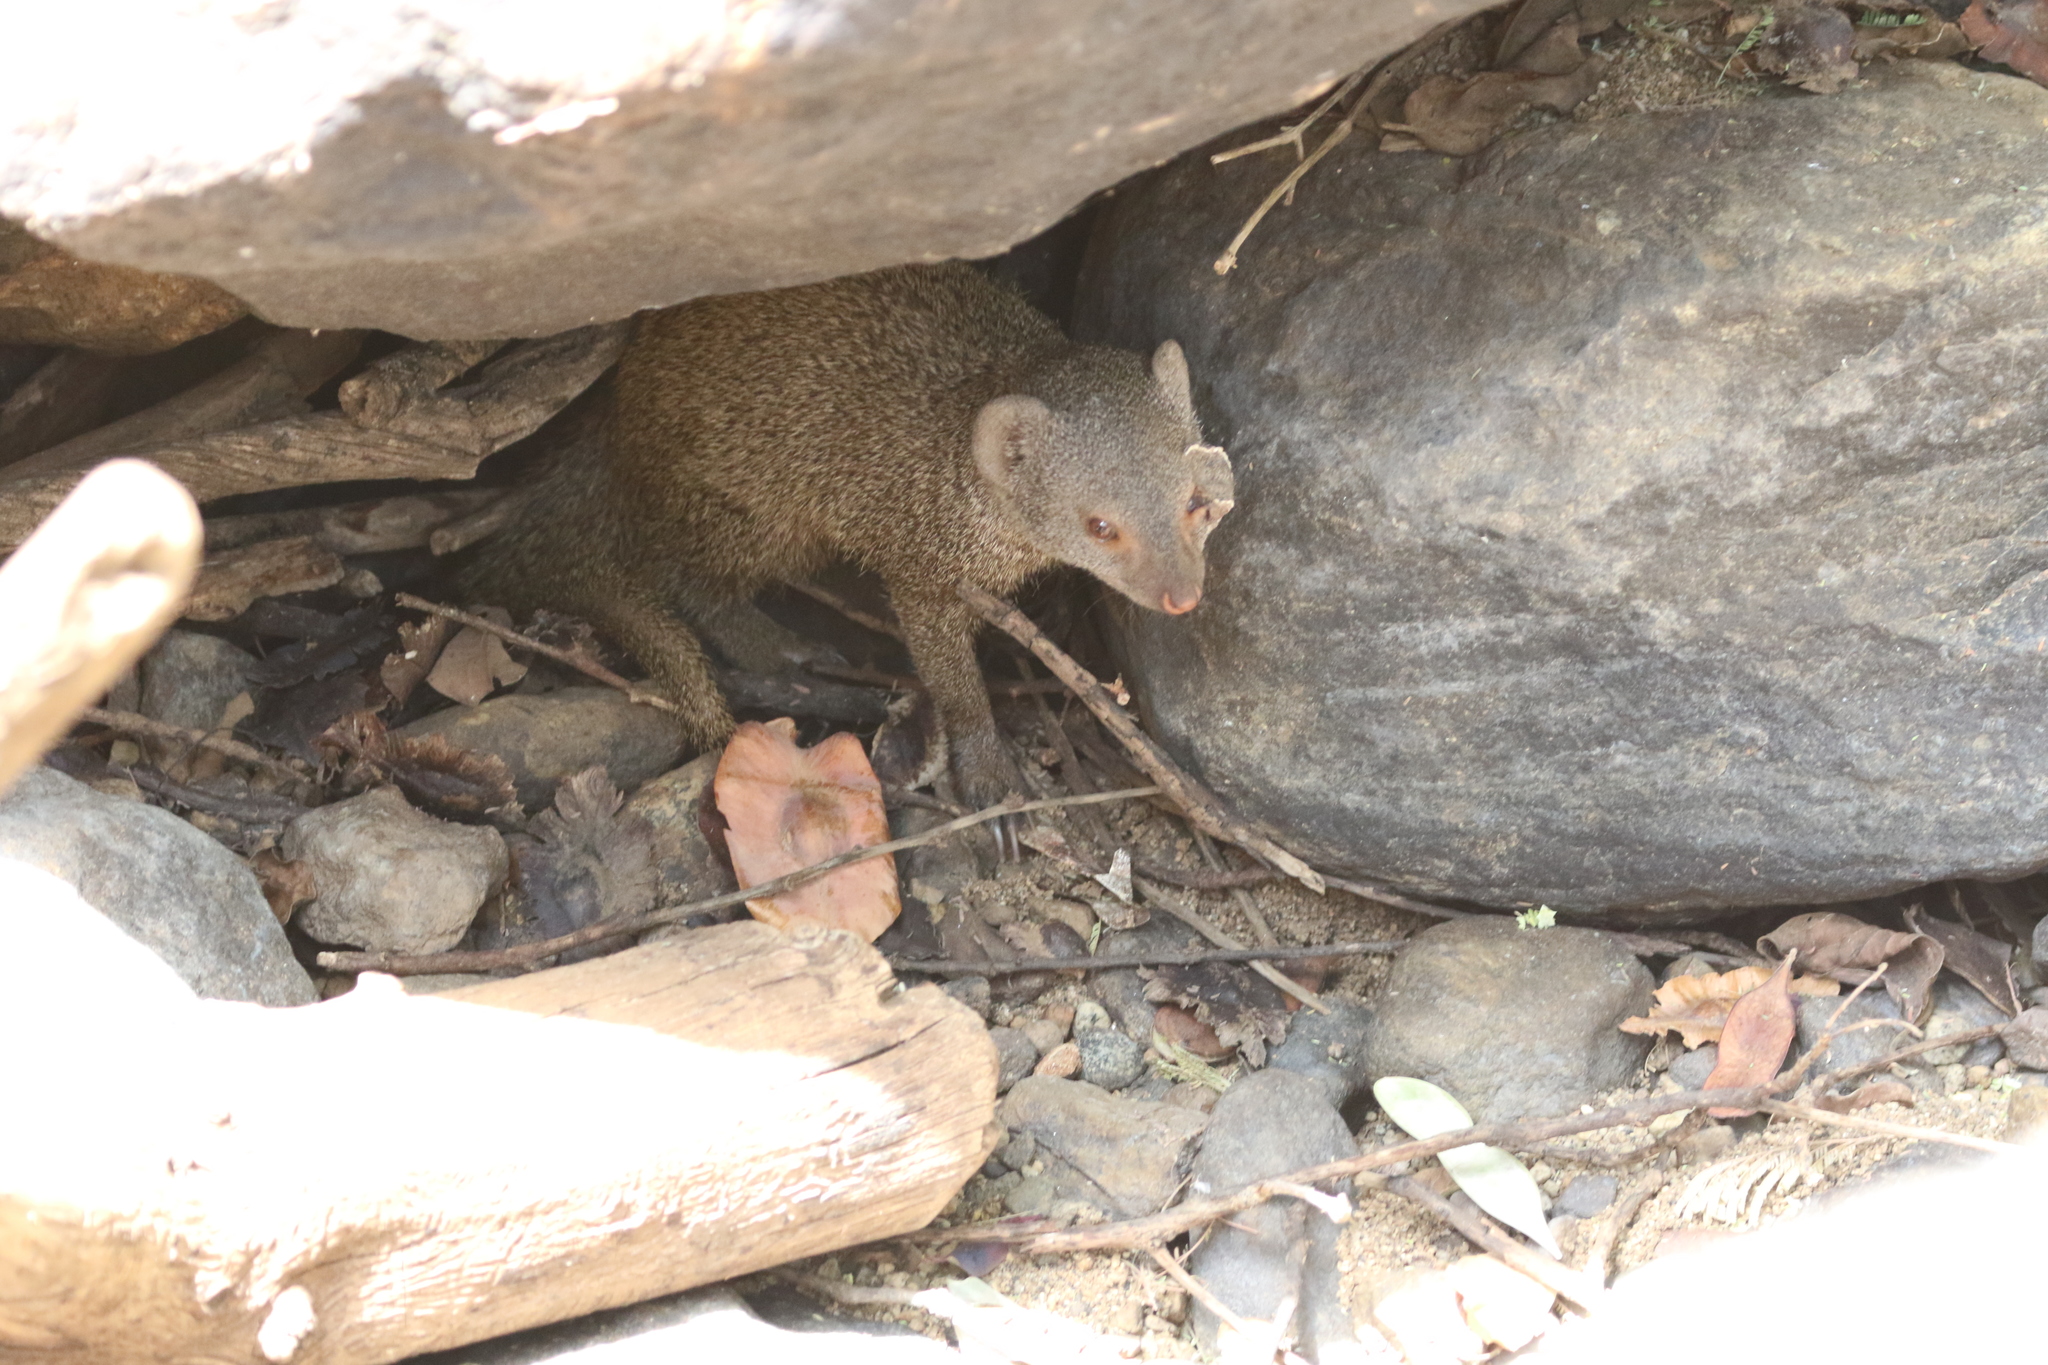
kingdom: Animalia
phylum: Chordata
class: Mammalia
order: Carnivora
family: Herpestidae
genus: Helogale
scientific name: Helogale hirtula
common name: Ethiopian dwarf mongoose
